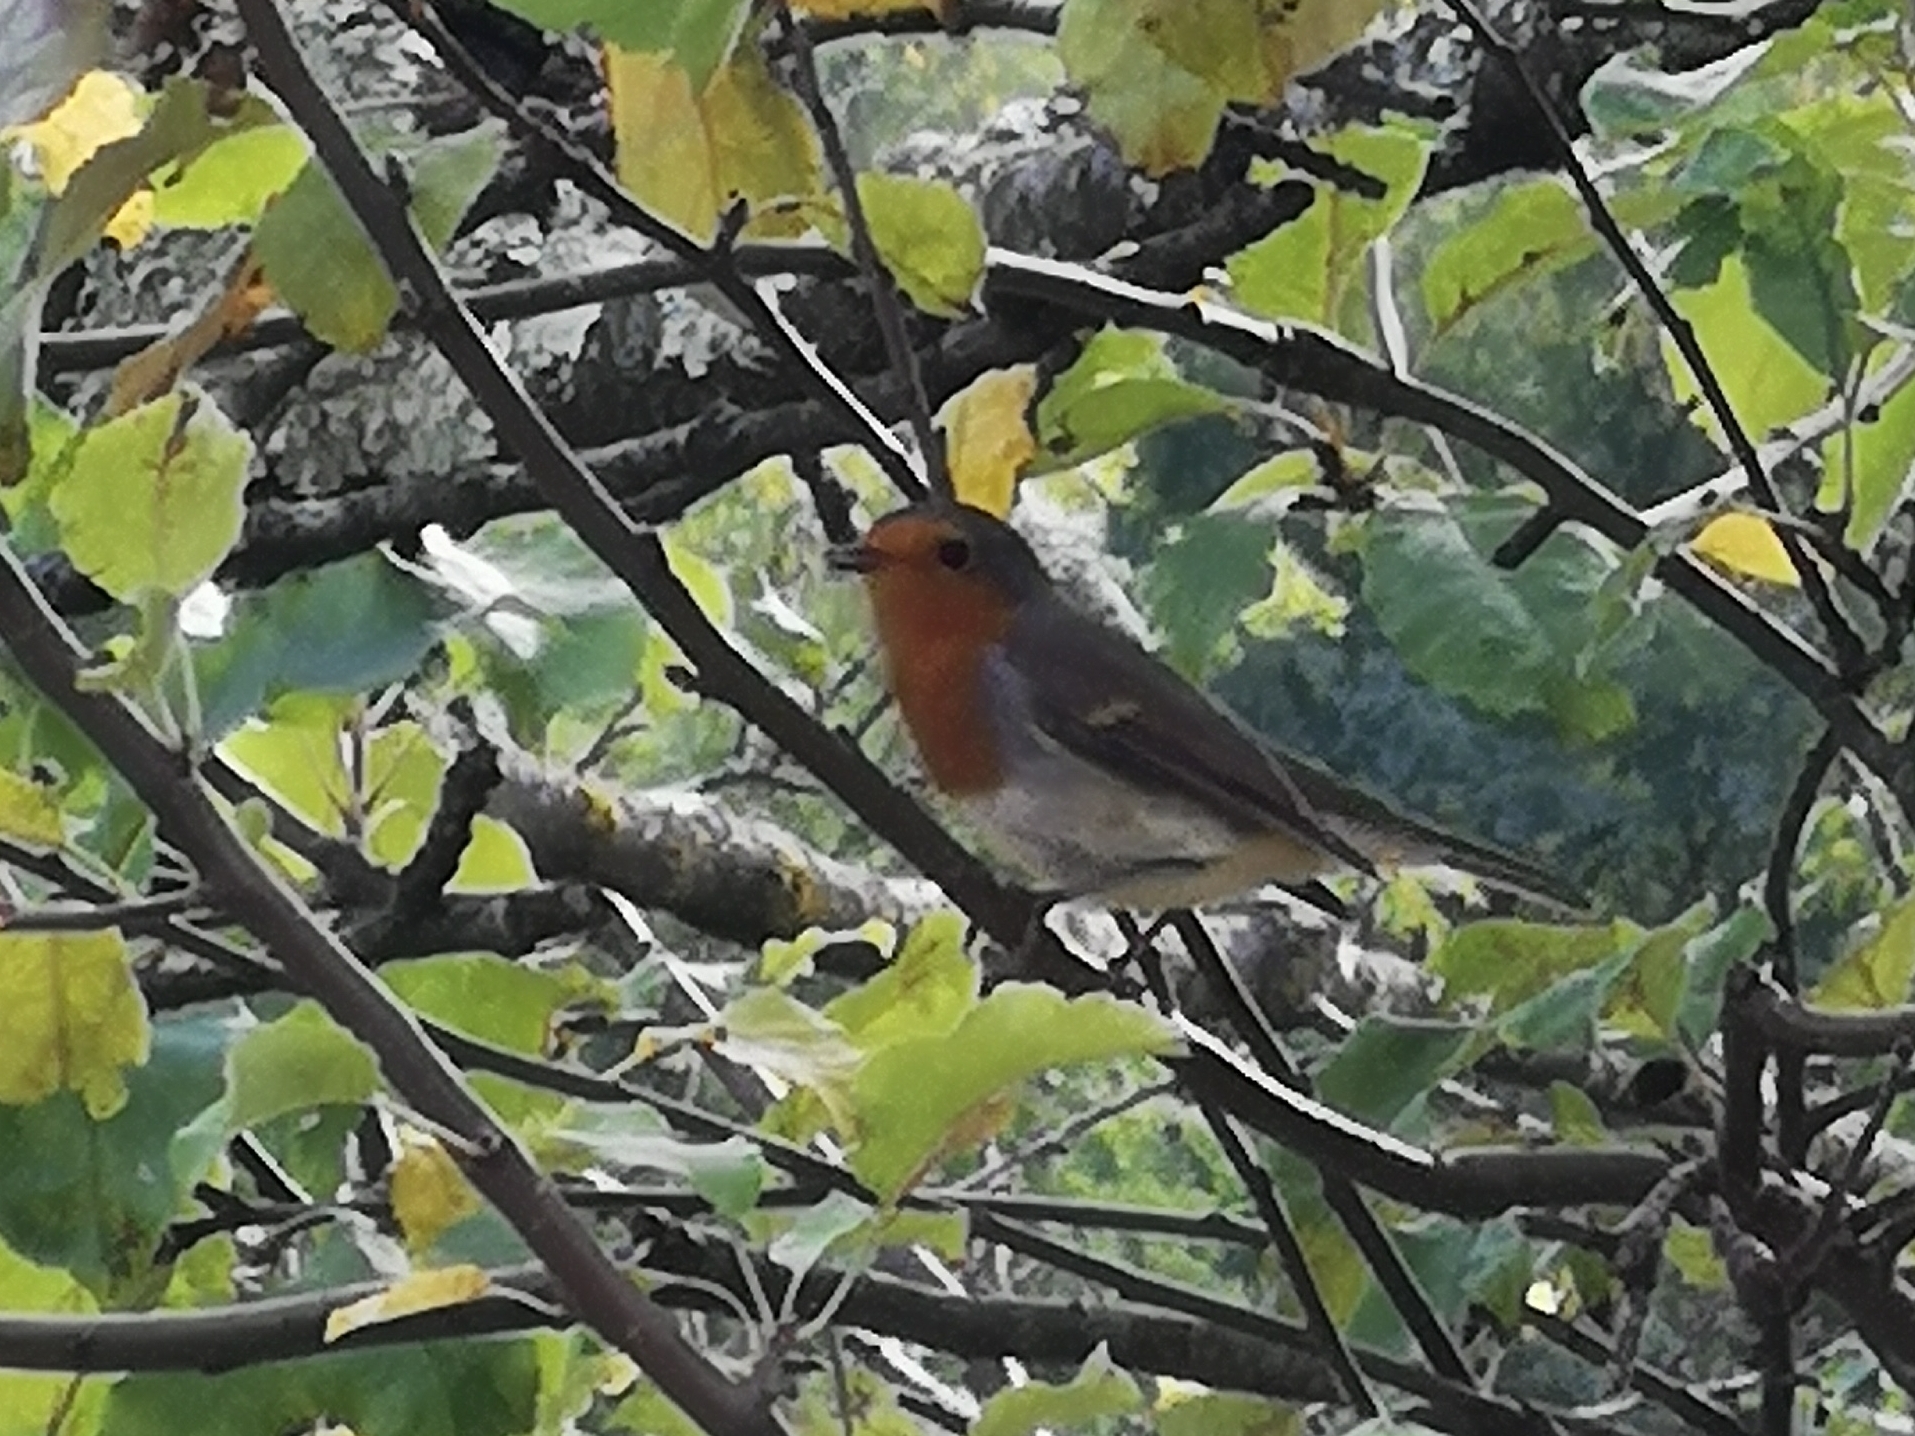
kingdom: Animalia
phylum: Chordata
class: Aves
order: Passeriformes
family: Muscicapidae
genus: Erithacus
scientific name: Erithacus rubecula
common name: European robin
